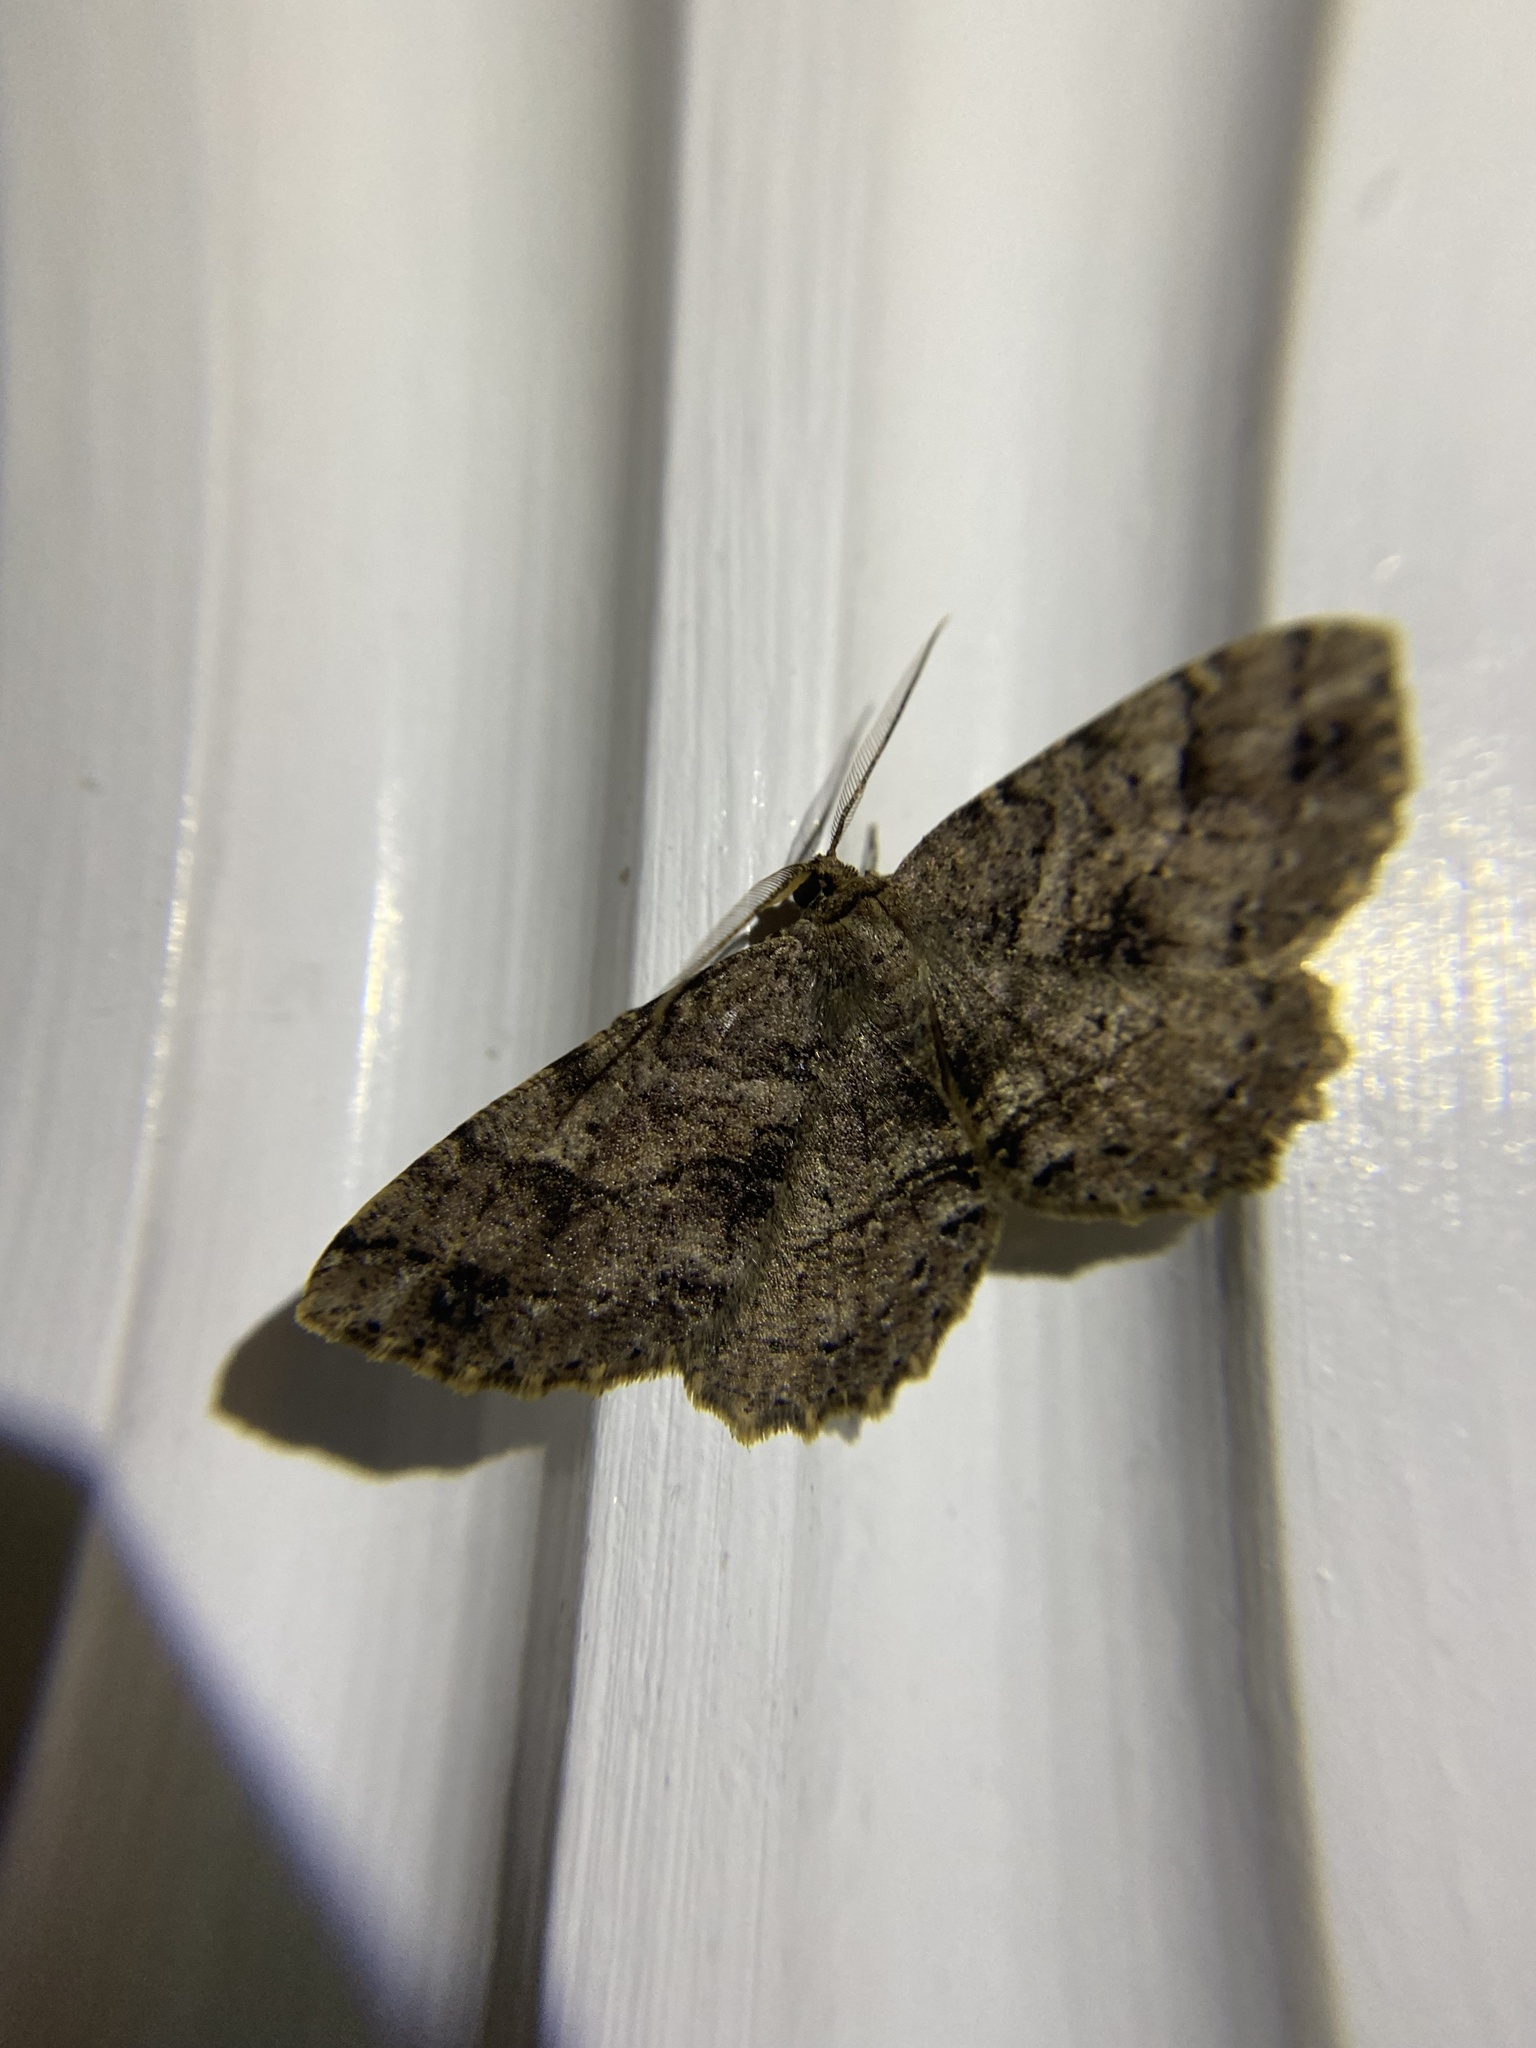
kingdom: Animalia
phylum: Arthropoda
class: Insecta
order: Lepidoptera
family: Geometridae
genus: Melanolophia
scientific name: Melanolophia canadaria
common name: Canadian melanolophia
